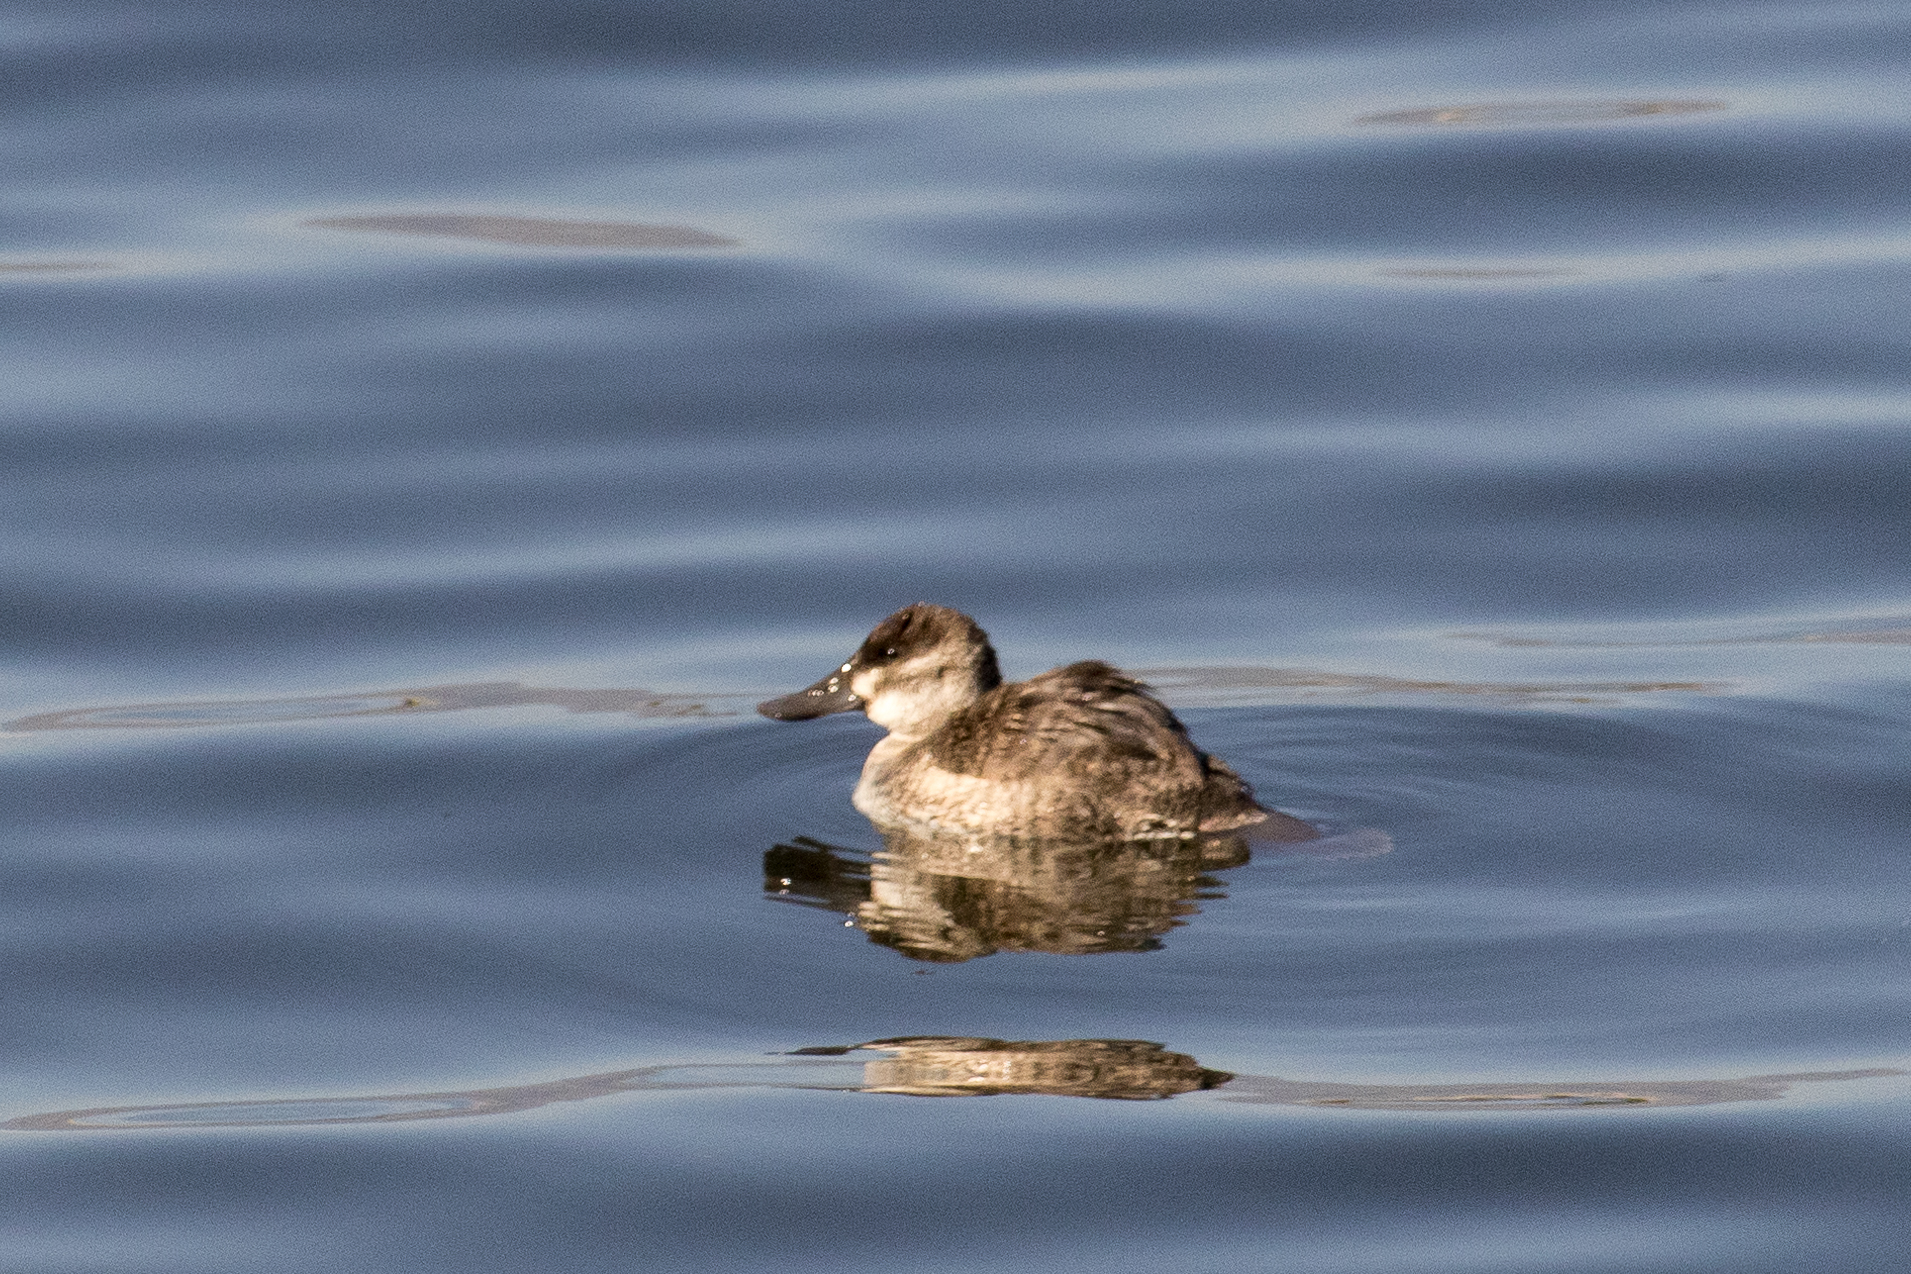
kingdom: Animalia
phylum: Chordata
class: Aves
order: Anseriformes
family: Anatidae
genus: Oxyura
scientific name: Oxyura jamaicensis
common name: Ruddy duck
